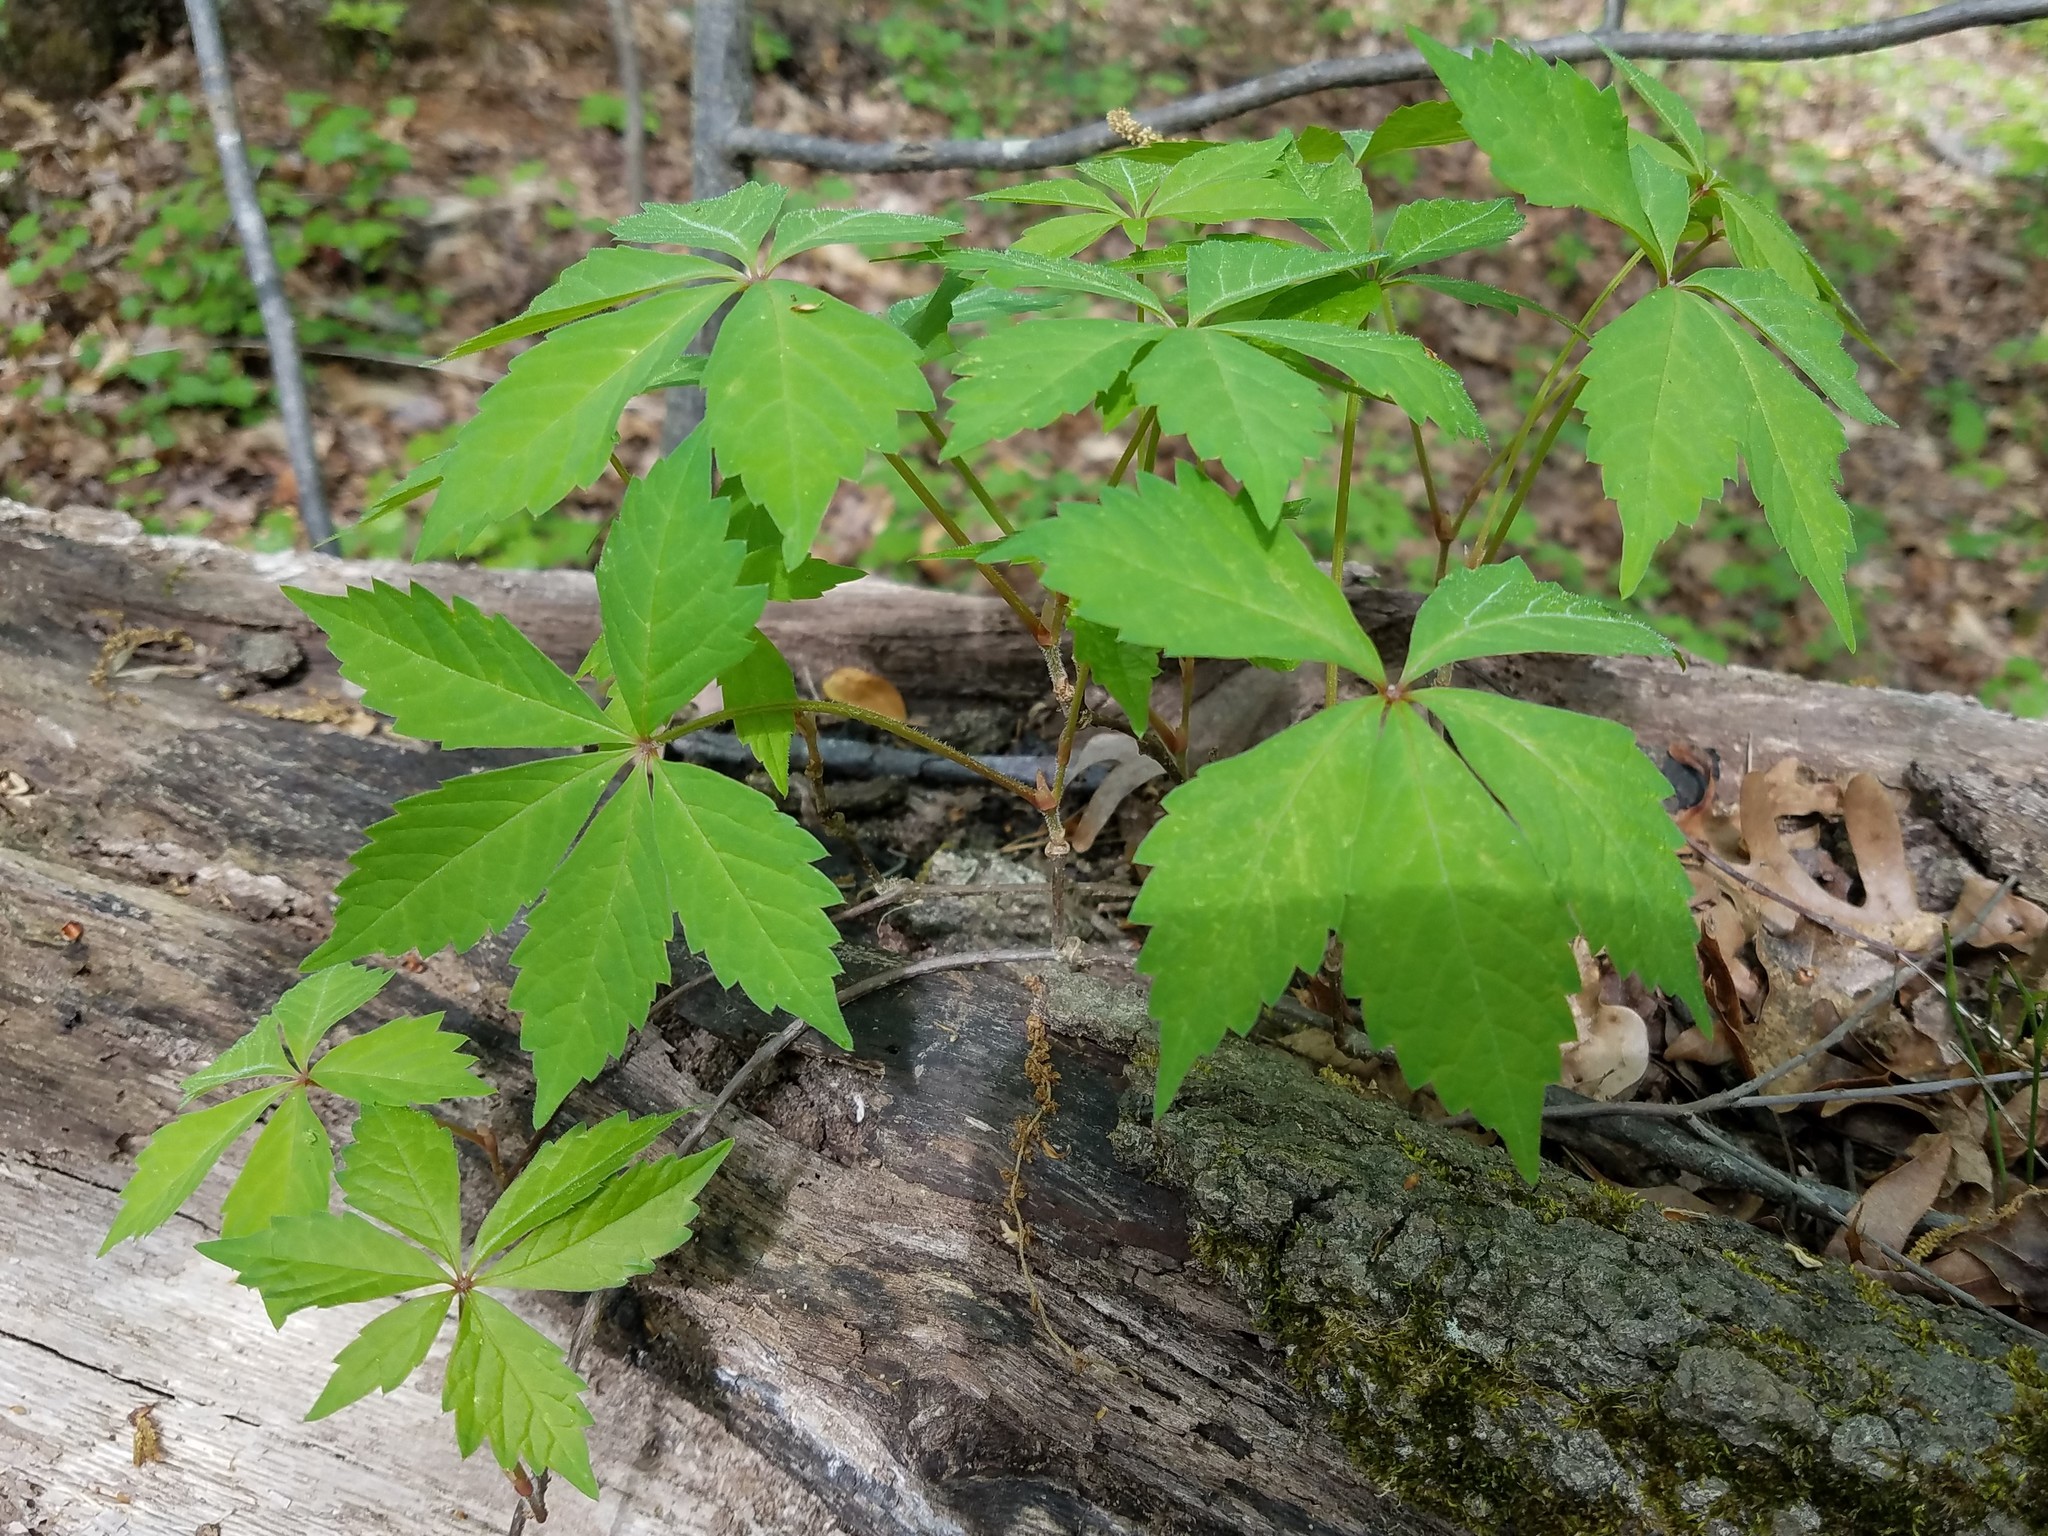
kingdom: Plantae
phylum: Tracheophyta
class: Magnoliopsida
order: Vitales
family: Vitaceae
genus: Parthenocissus
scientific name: Parthenocissus quinquefolia
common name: Virginia-creeper
